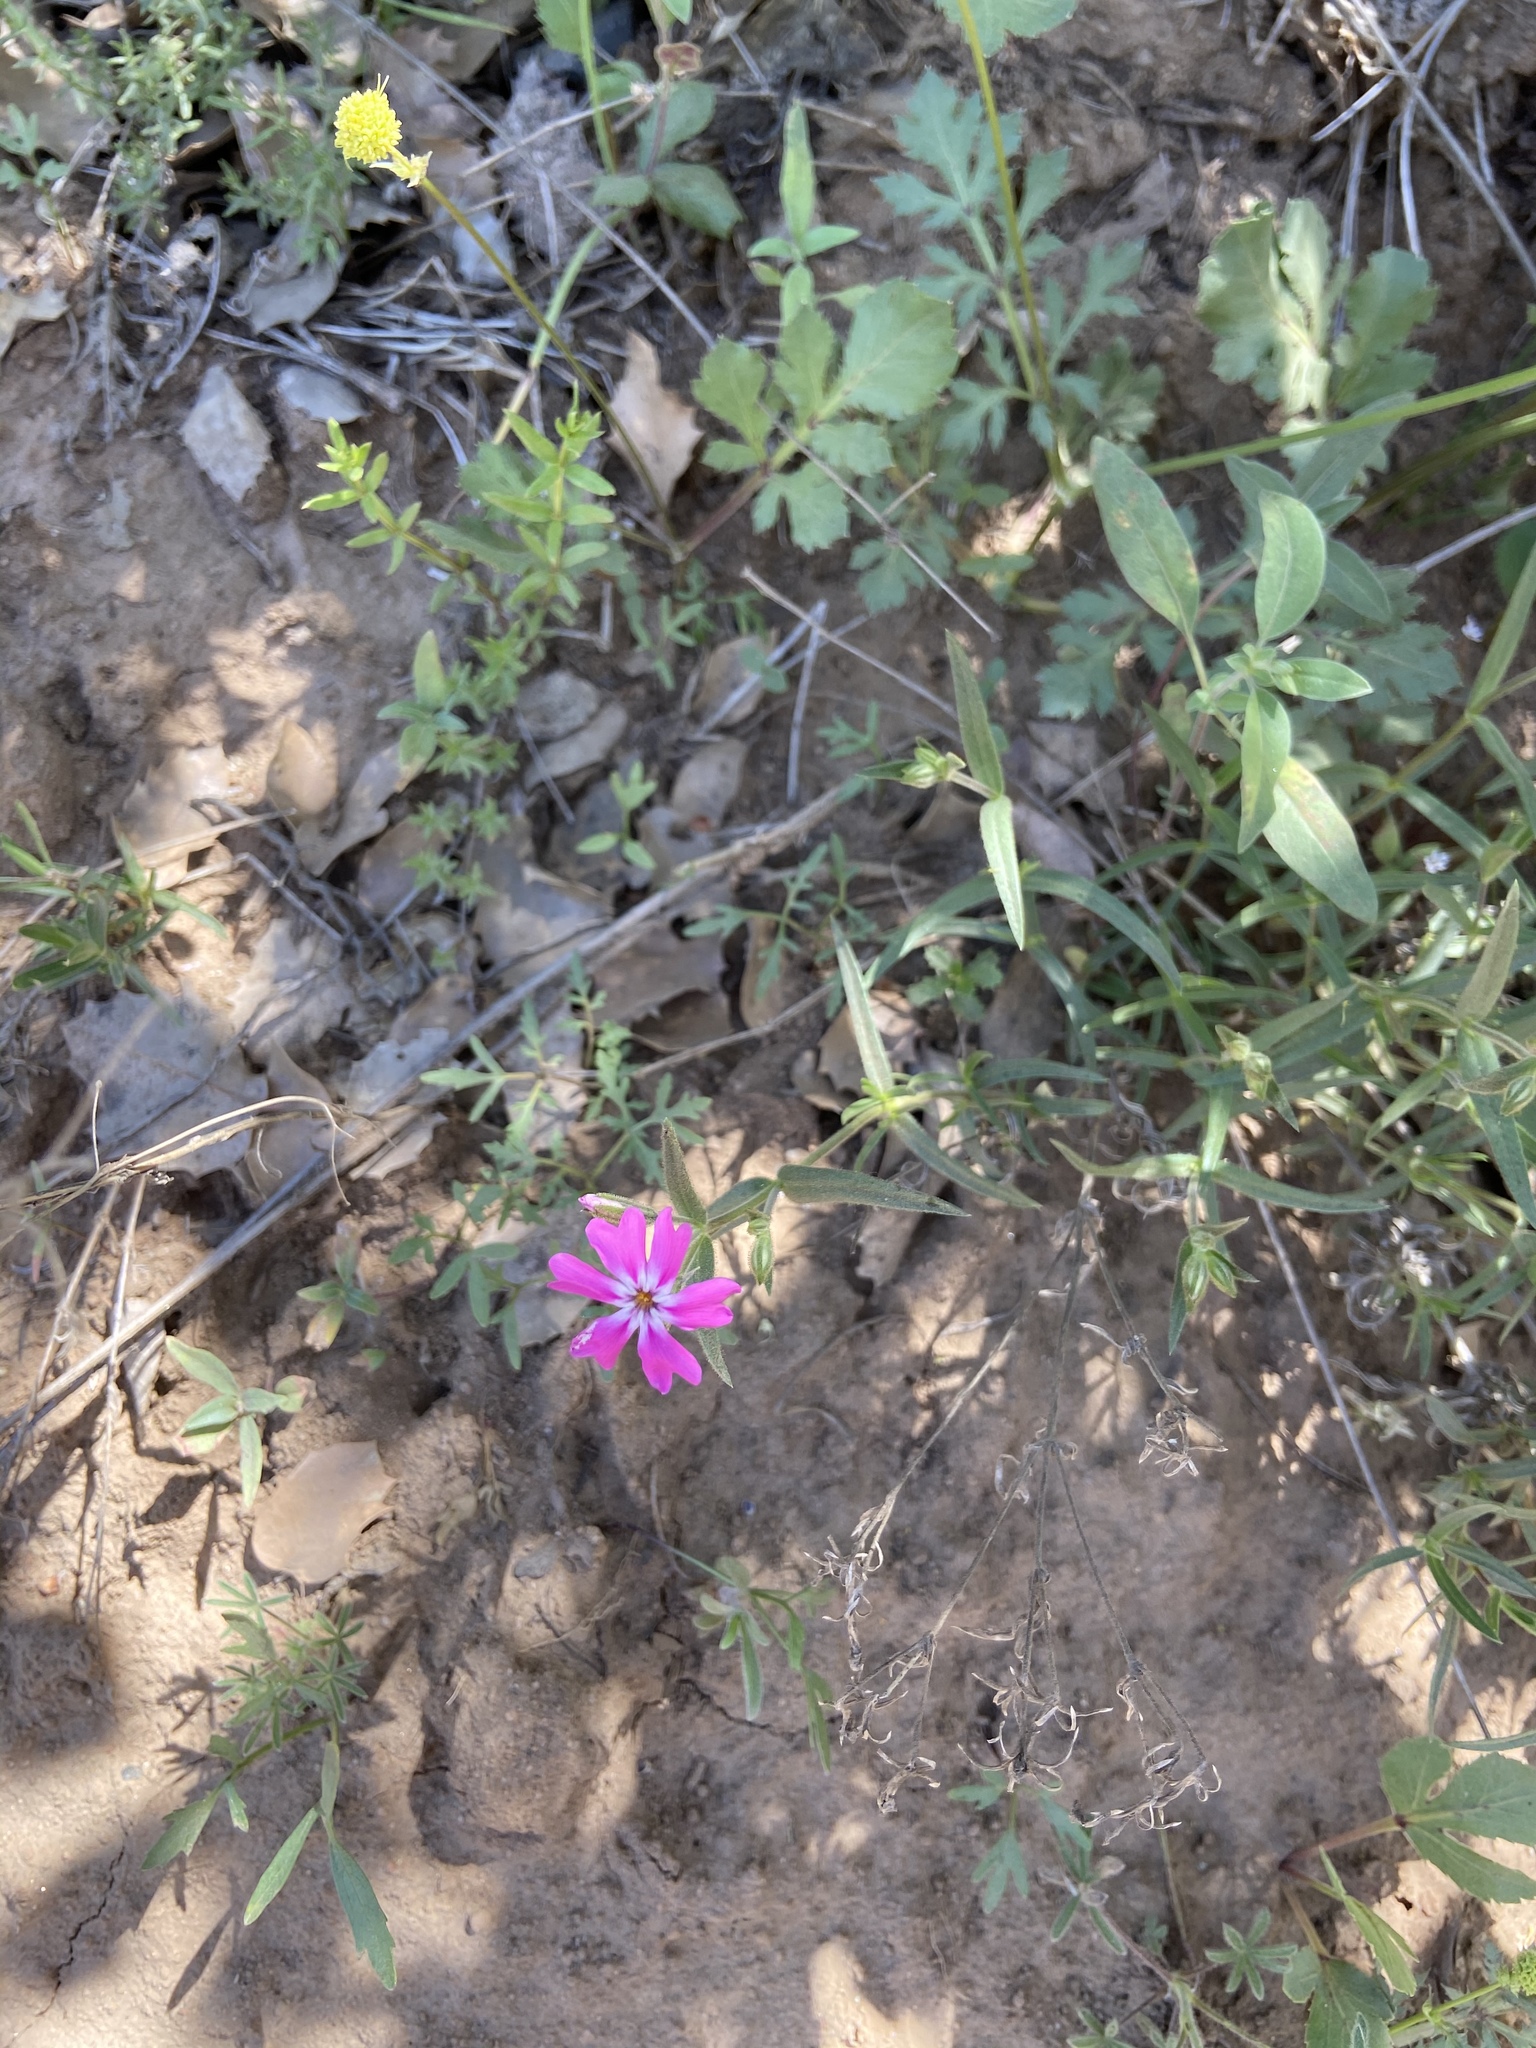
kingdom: Plantae
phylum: Tracheophyta
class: Magnoliopsida
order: Ericales
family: Polemoniaceae
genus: Phlox
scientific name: Phlox speciosa
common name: Bush phlox
